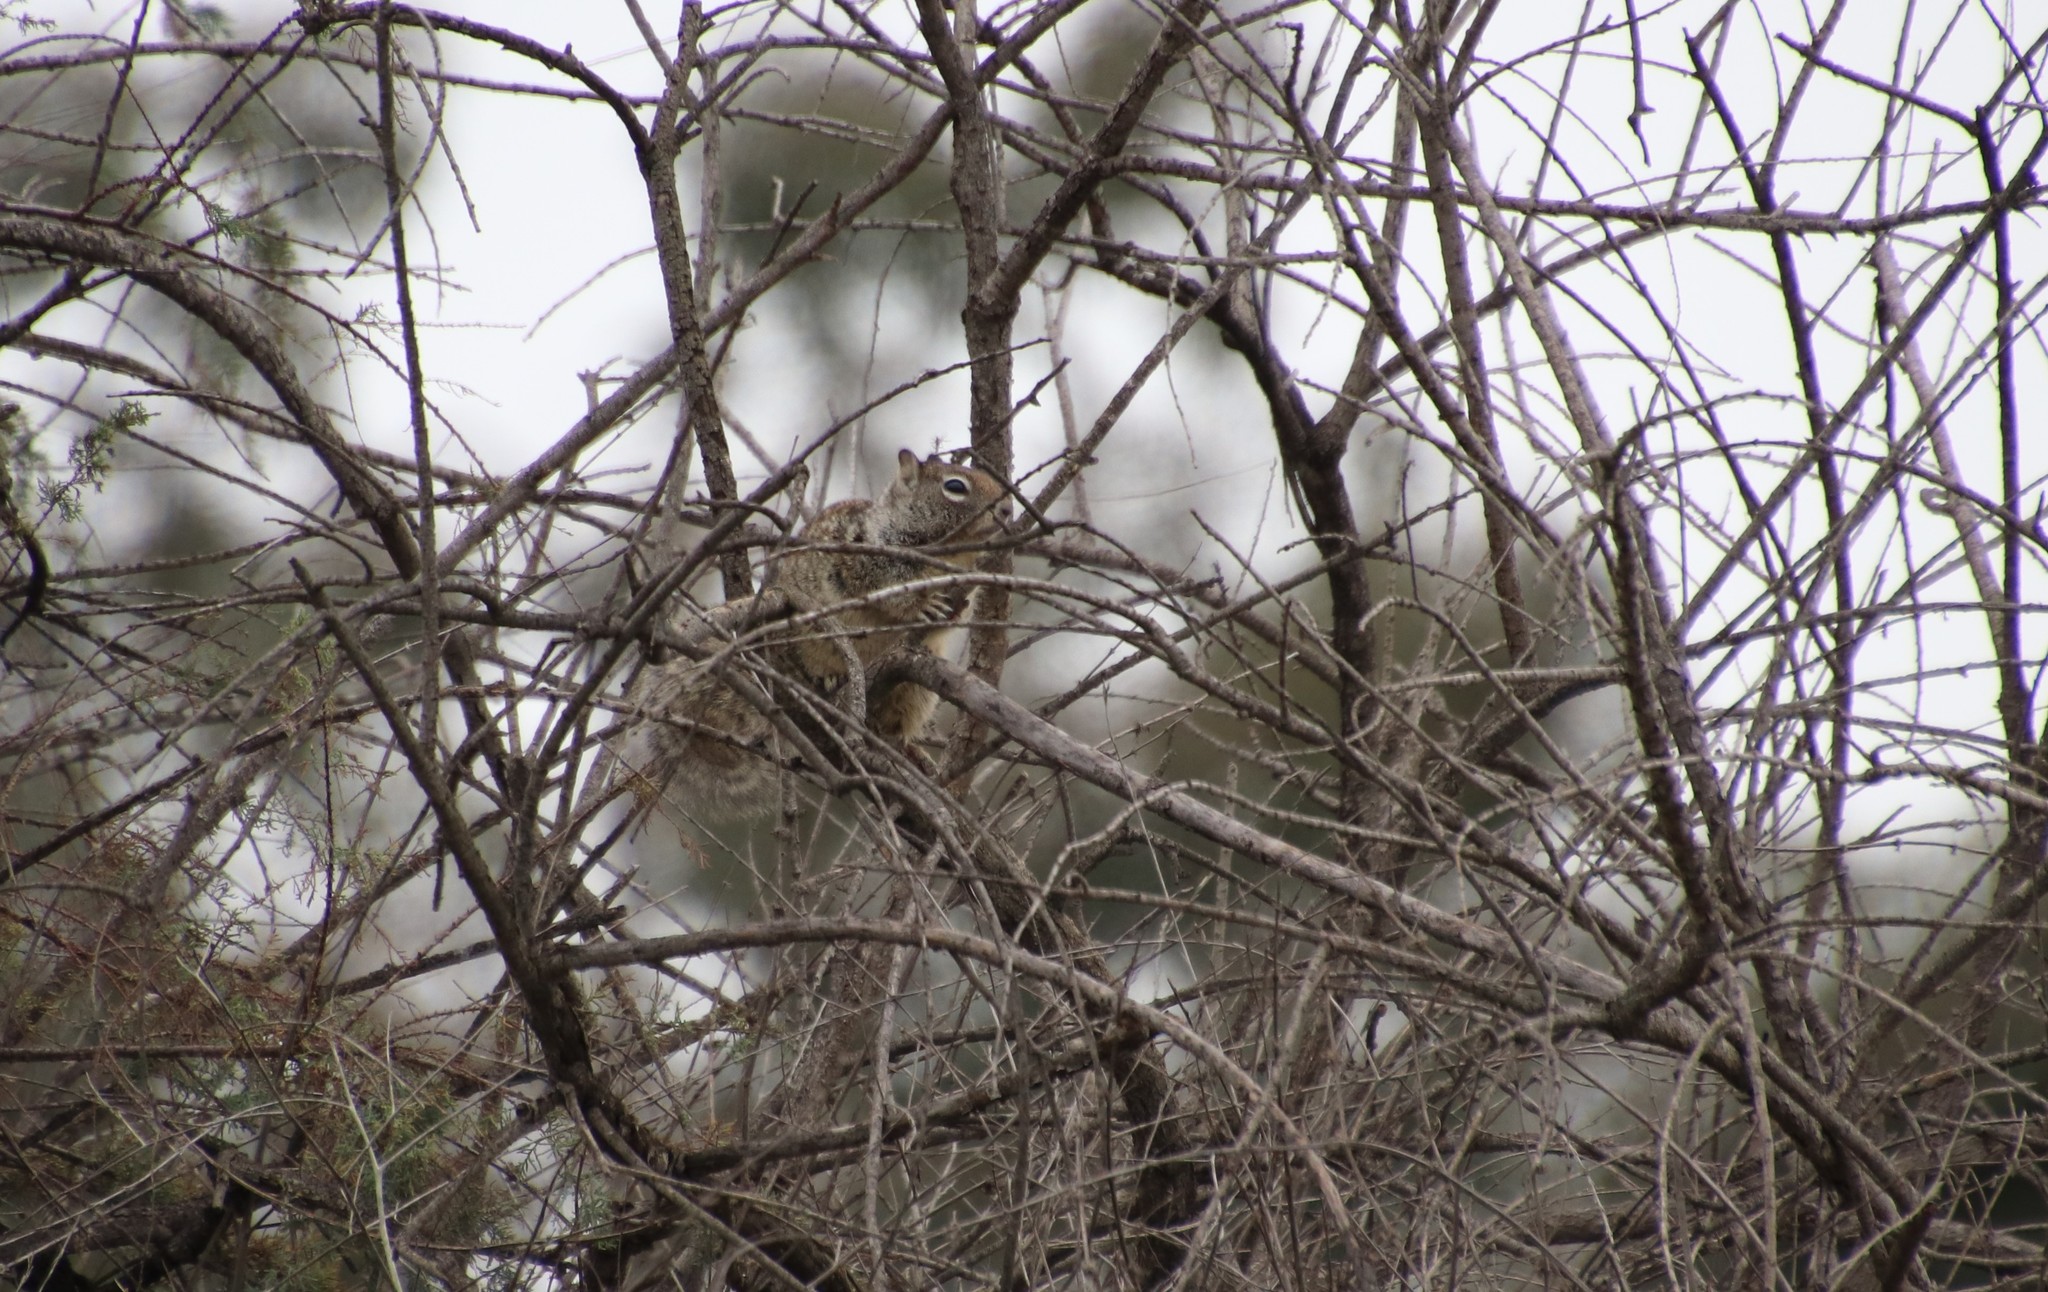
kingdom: Animalia
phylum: Chordata
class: Mammalia
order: Rodentia
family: Sciuridae
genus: Otospermophilus
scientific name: Otospermophilus beecheyi
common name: California ground squirrel
